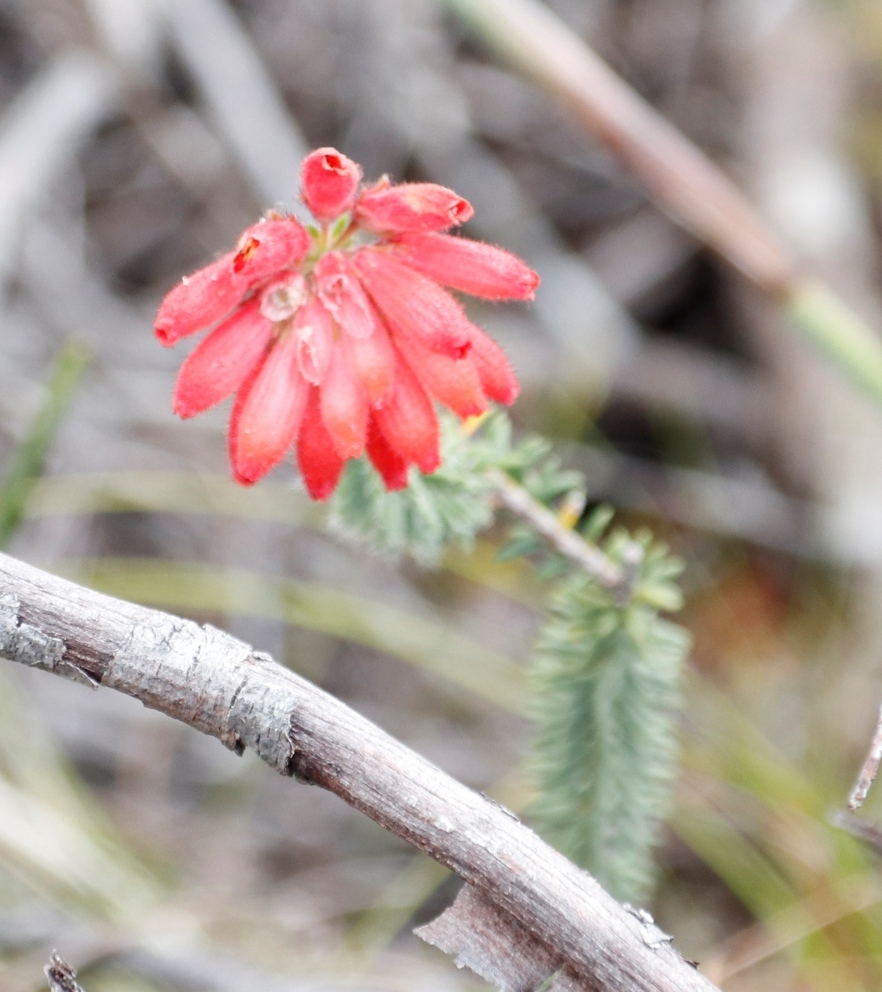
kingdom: Plantae
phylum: Tracheophyta
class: Magnoliopsida
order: Ericales
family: Ericaceae
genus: Erica
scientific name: Erica cerinthoides
